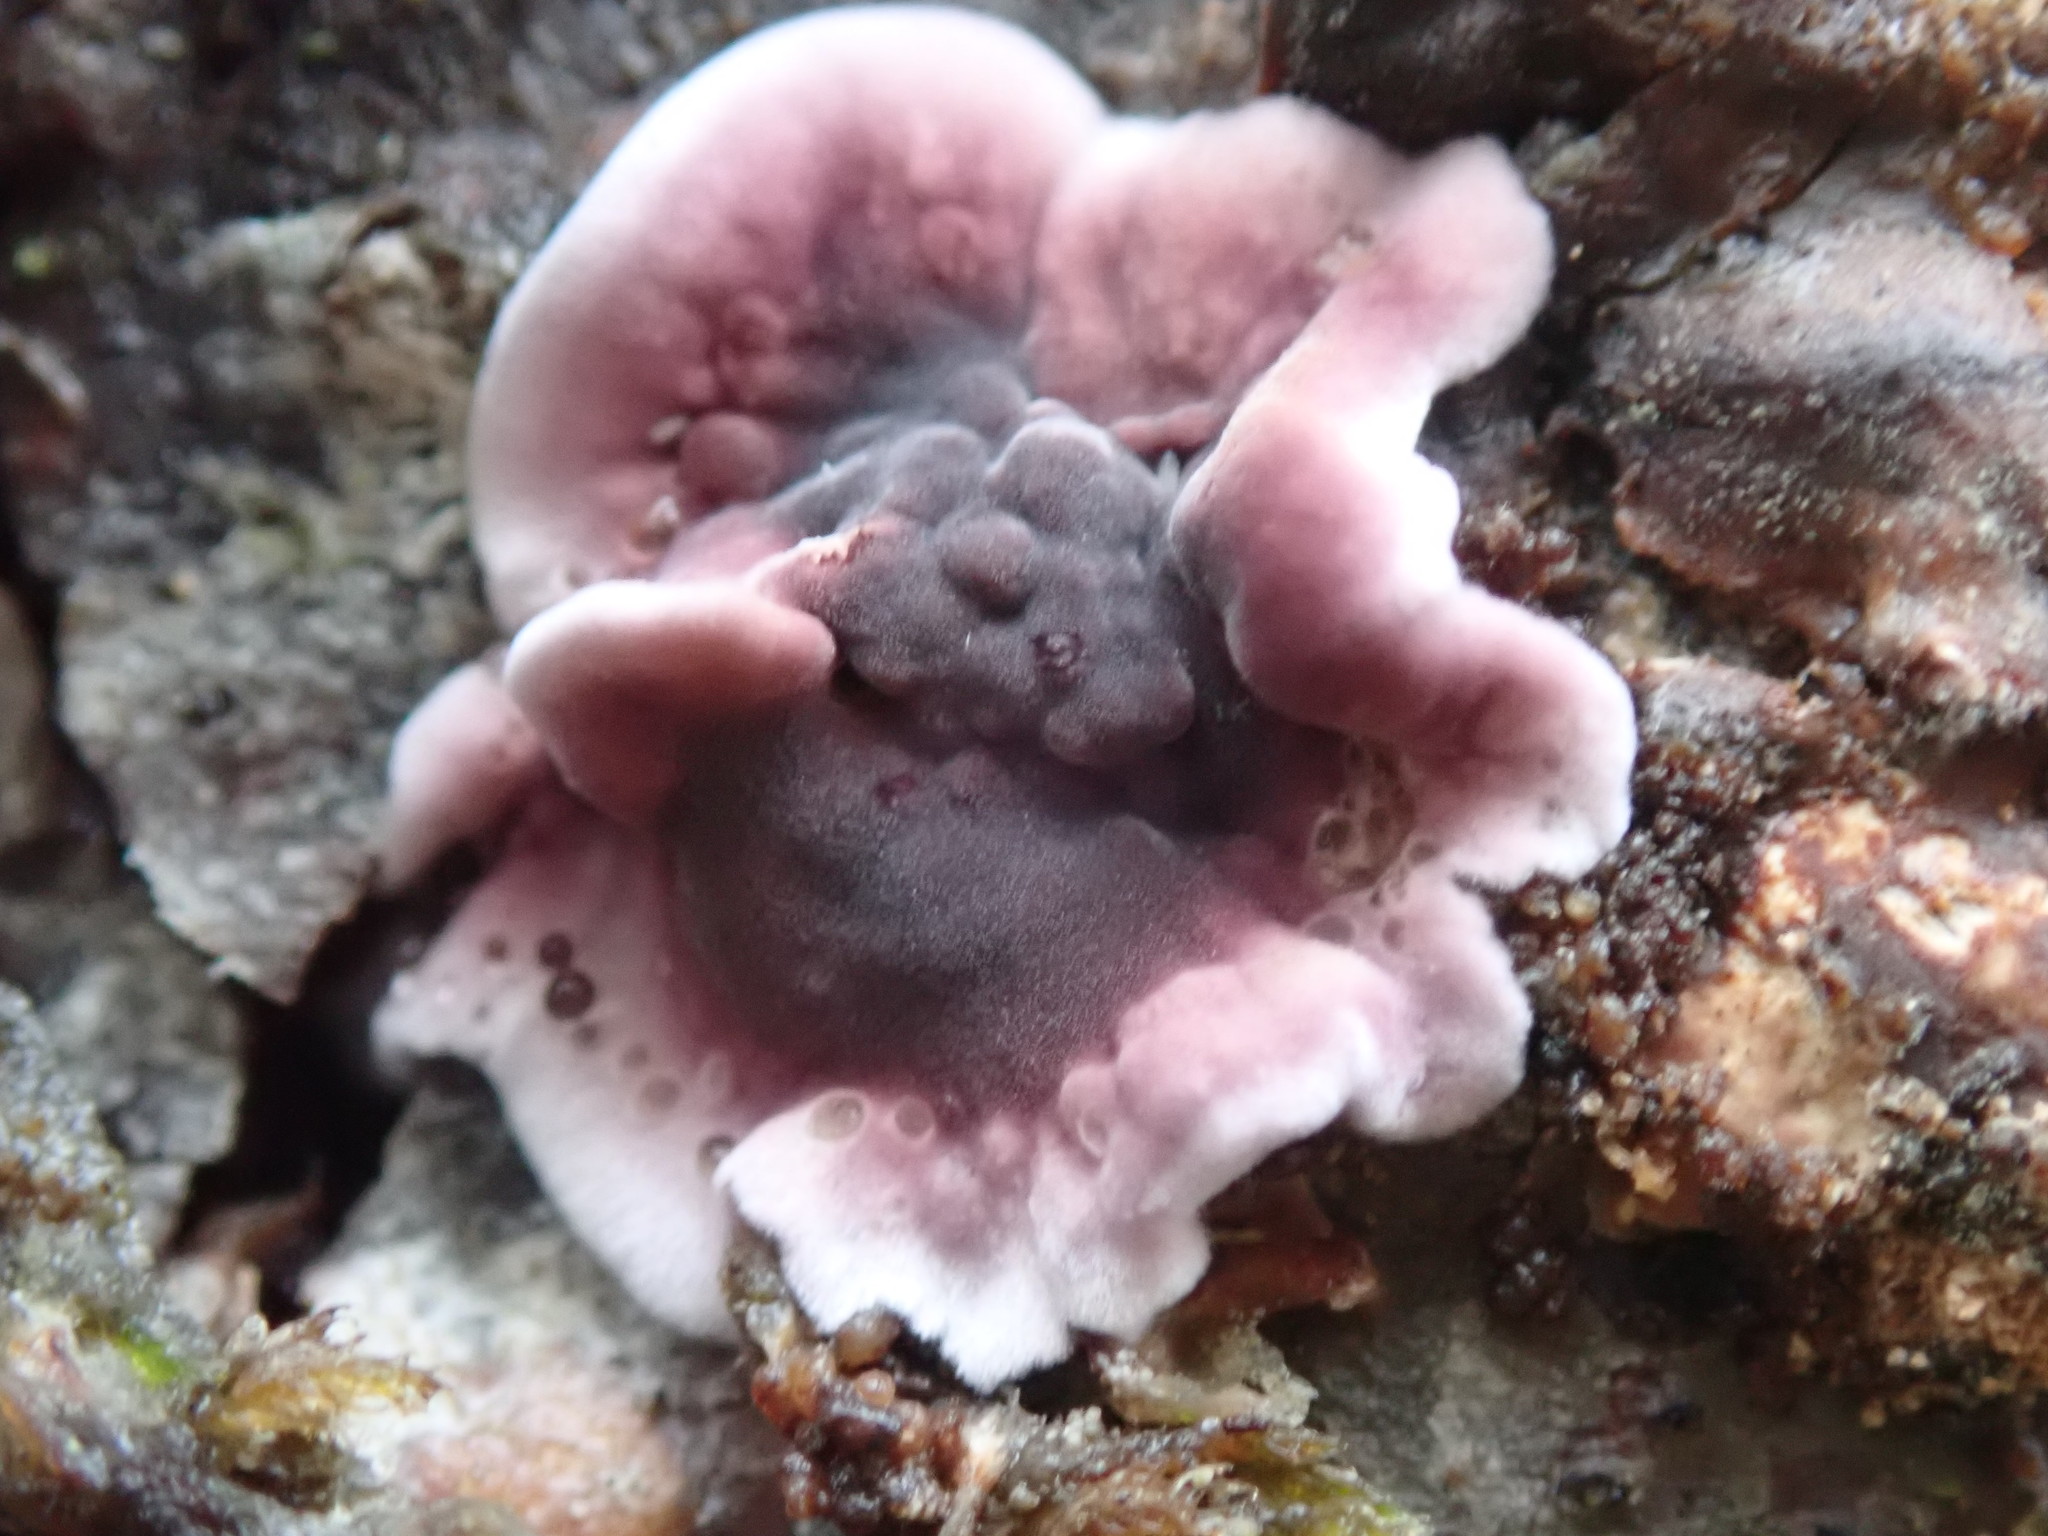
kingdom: Fungi
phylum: Basidiomycota
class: Agaricomycetes
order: Agaricales
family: Cyphellaceae
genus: Chondrostereum
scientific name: Chondrostereum purpureum
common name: Silver leaf disease
